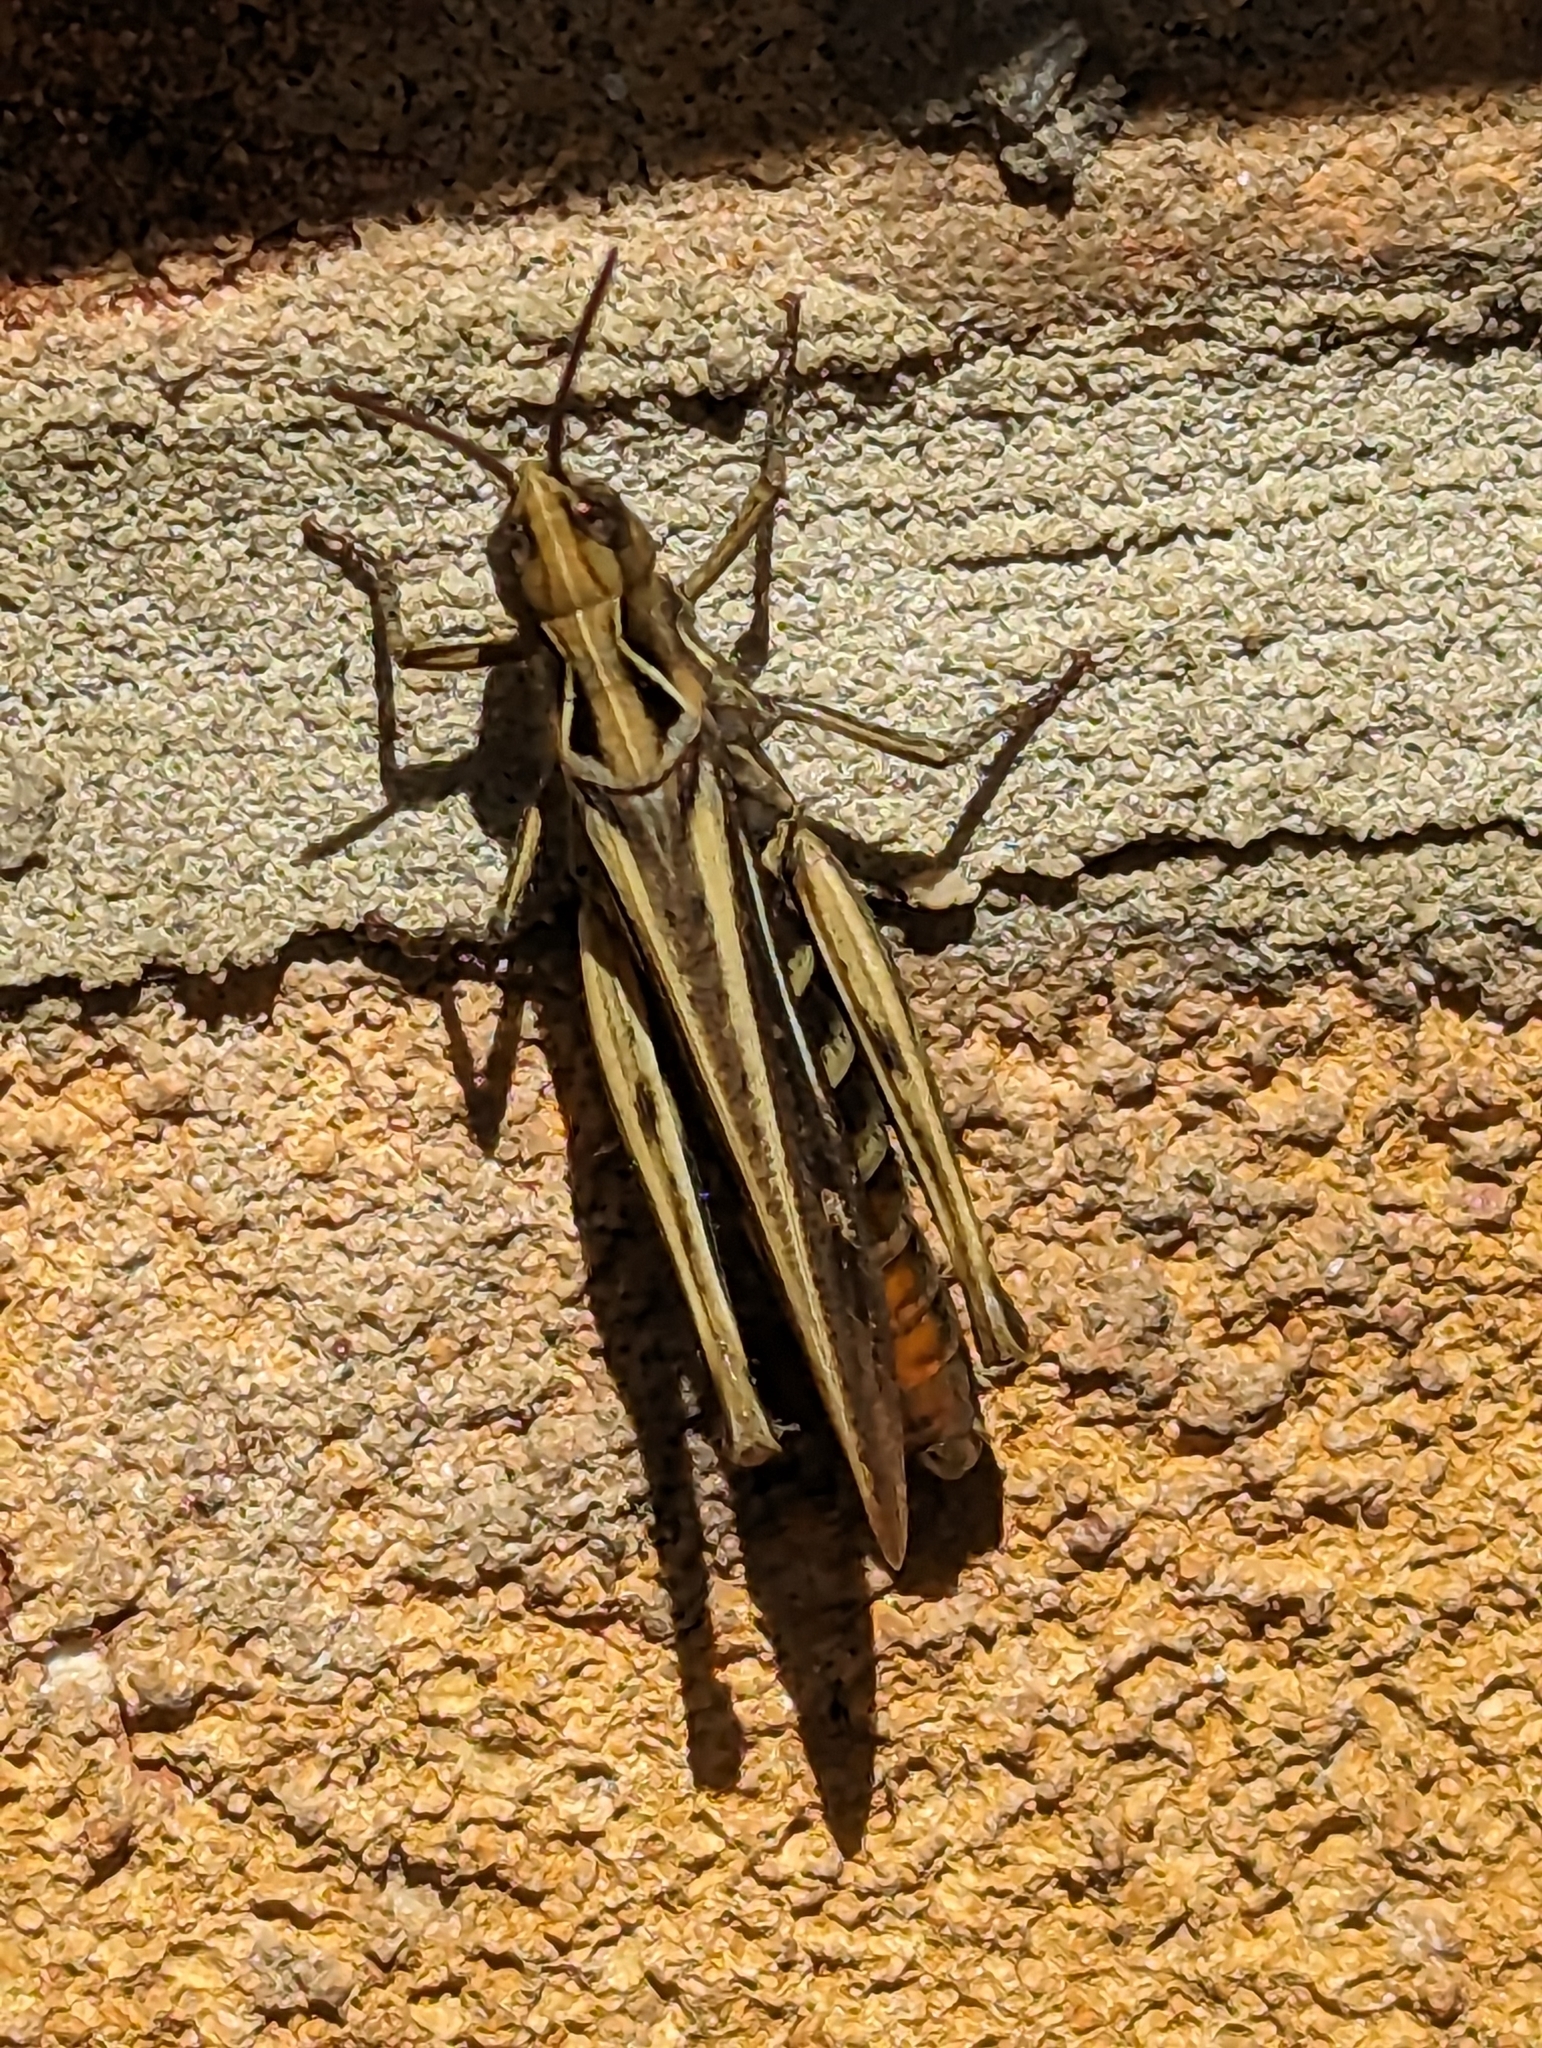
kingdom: Animalia
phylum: Arthropoda
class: Insecta
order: Orthoptera
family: Acrididae
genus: Chorthippus
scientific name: Chorthippus brunneus
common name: Field grasshopper
